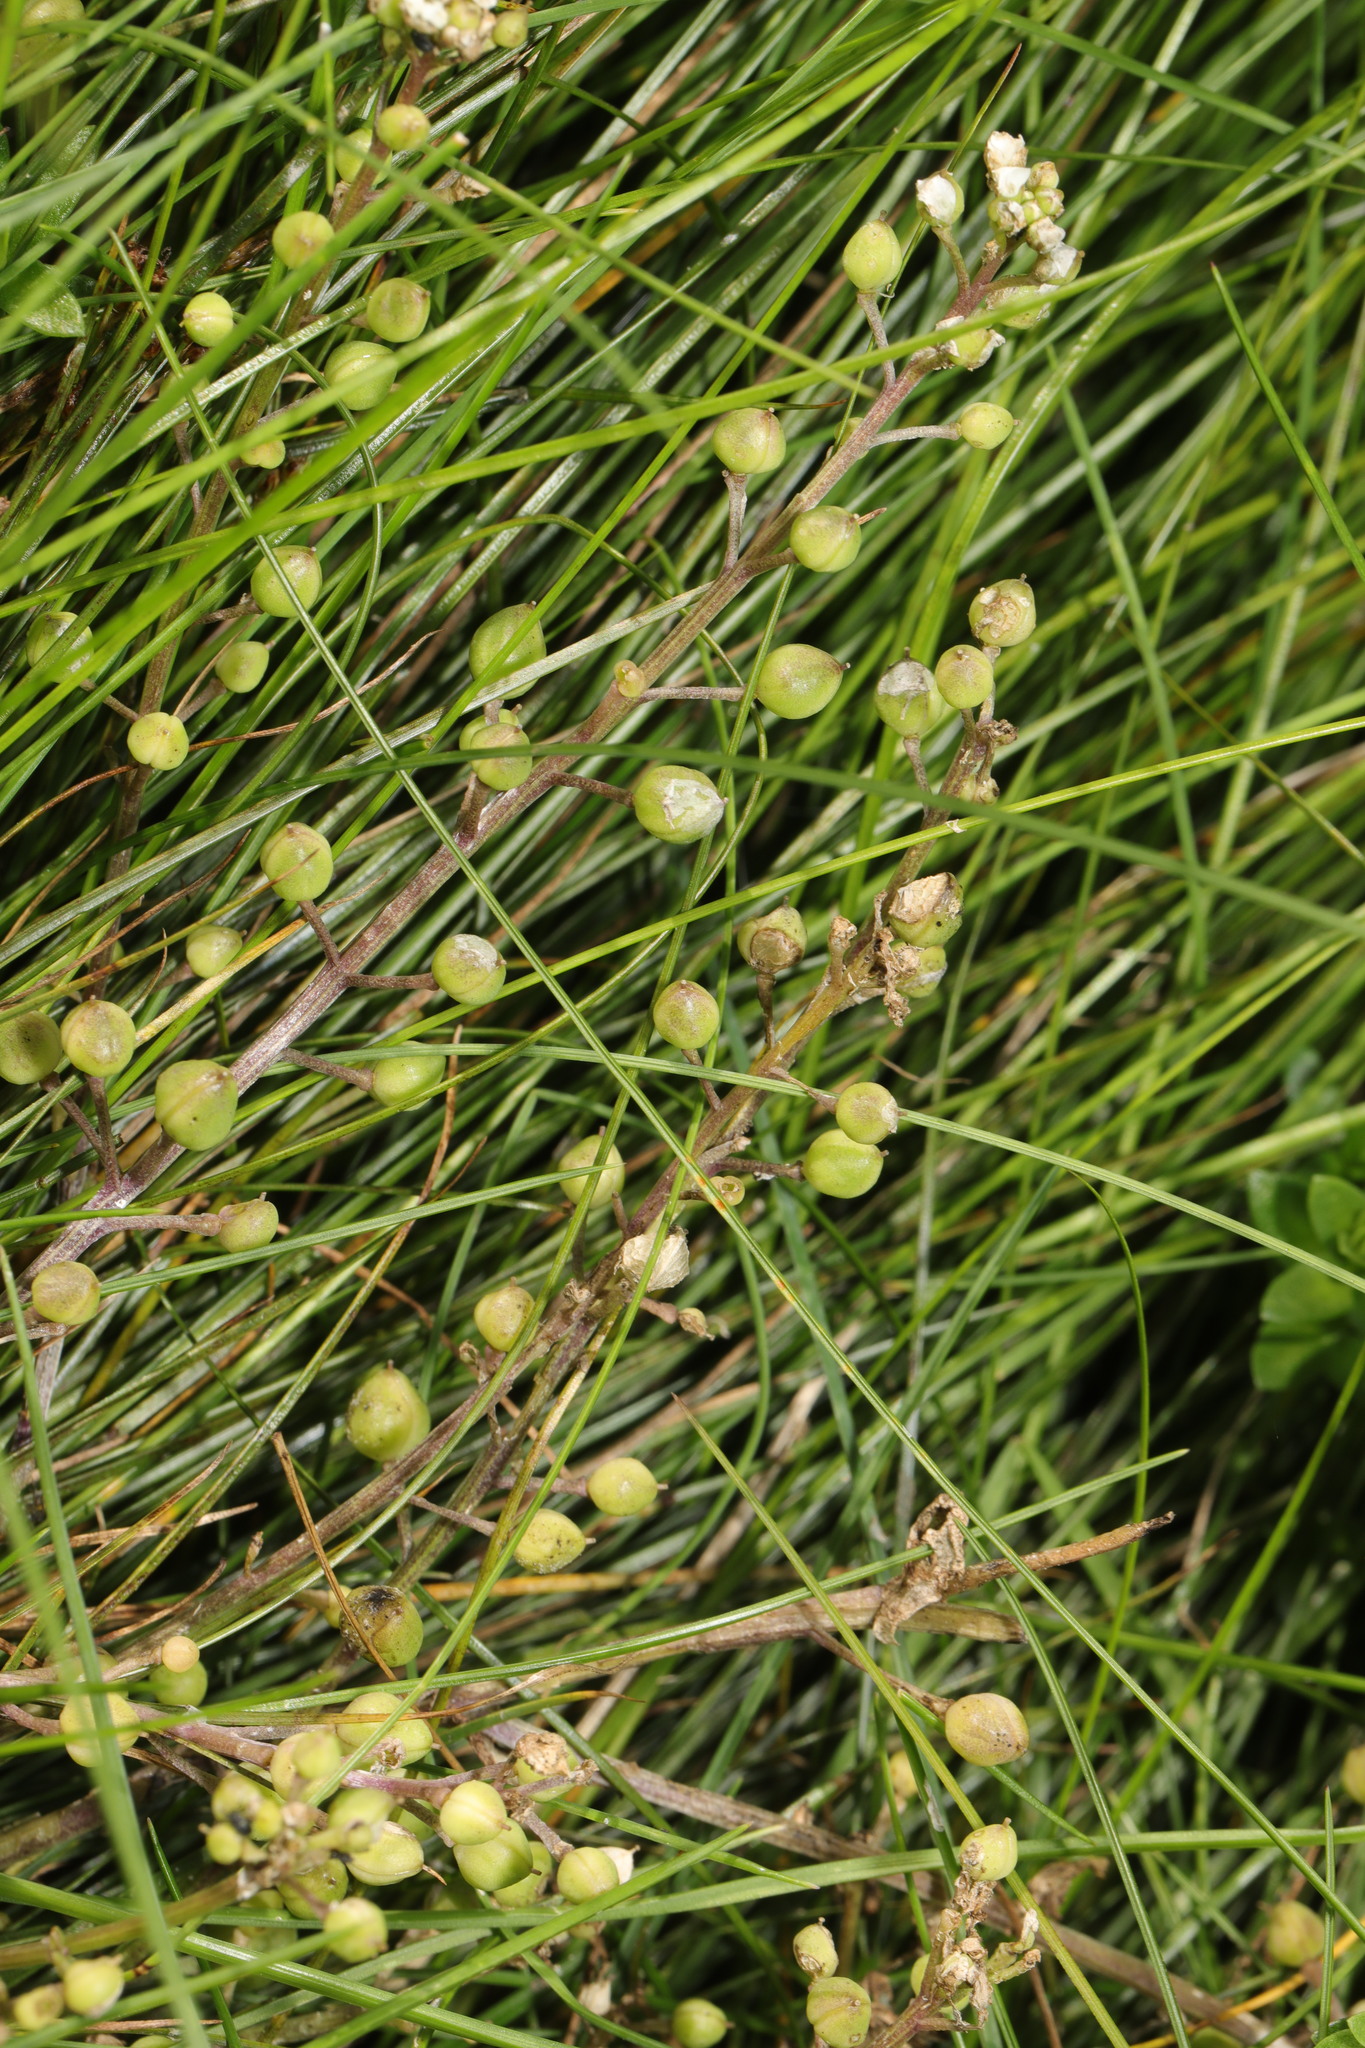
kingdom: Plantae
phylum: Tracheophyta
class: Magnoliopsida
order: Brassicales
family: Brassicaceae
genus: Cochlearia
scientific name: Cochlearia officinalis
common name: Scurvy-grass
